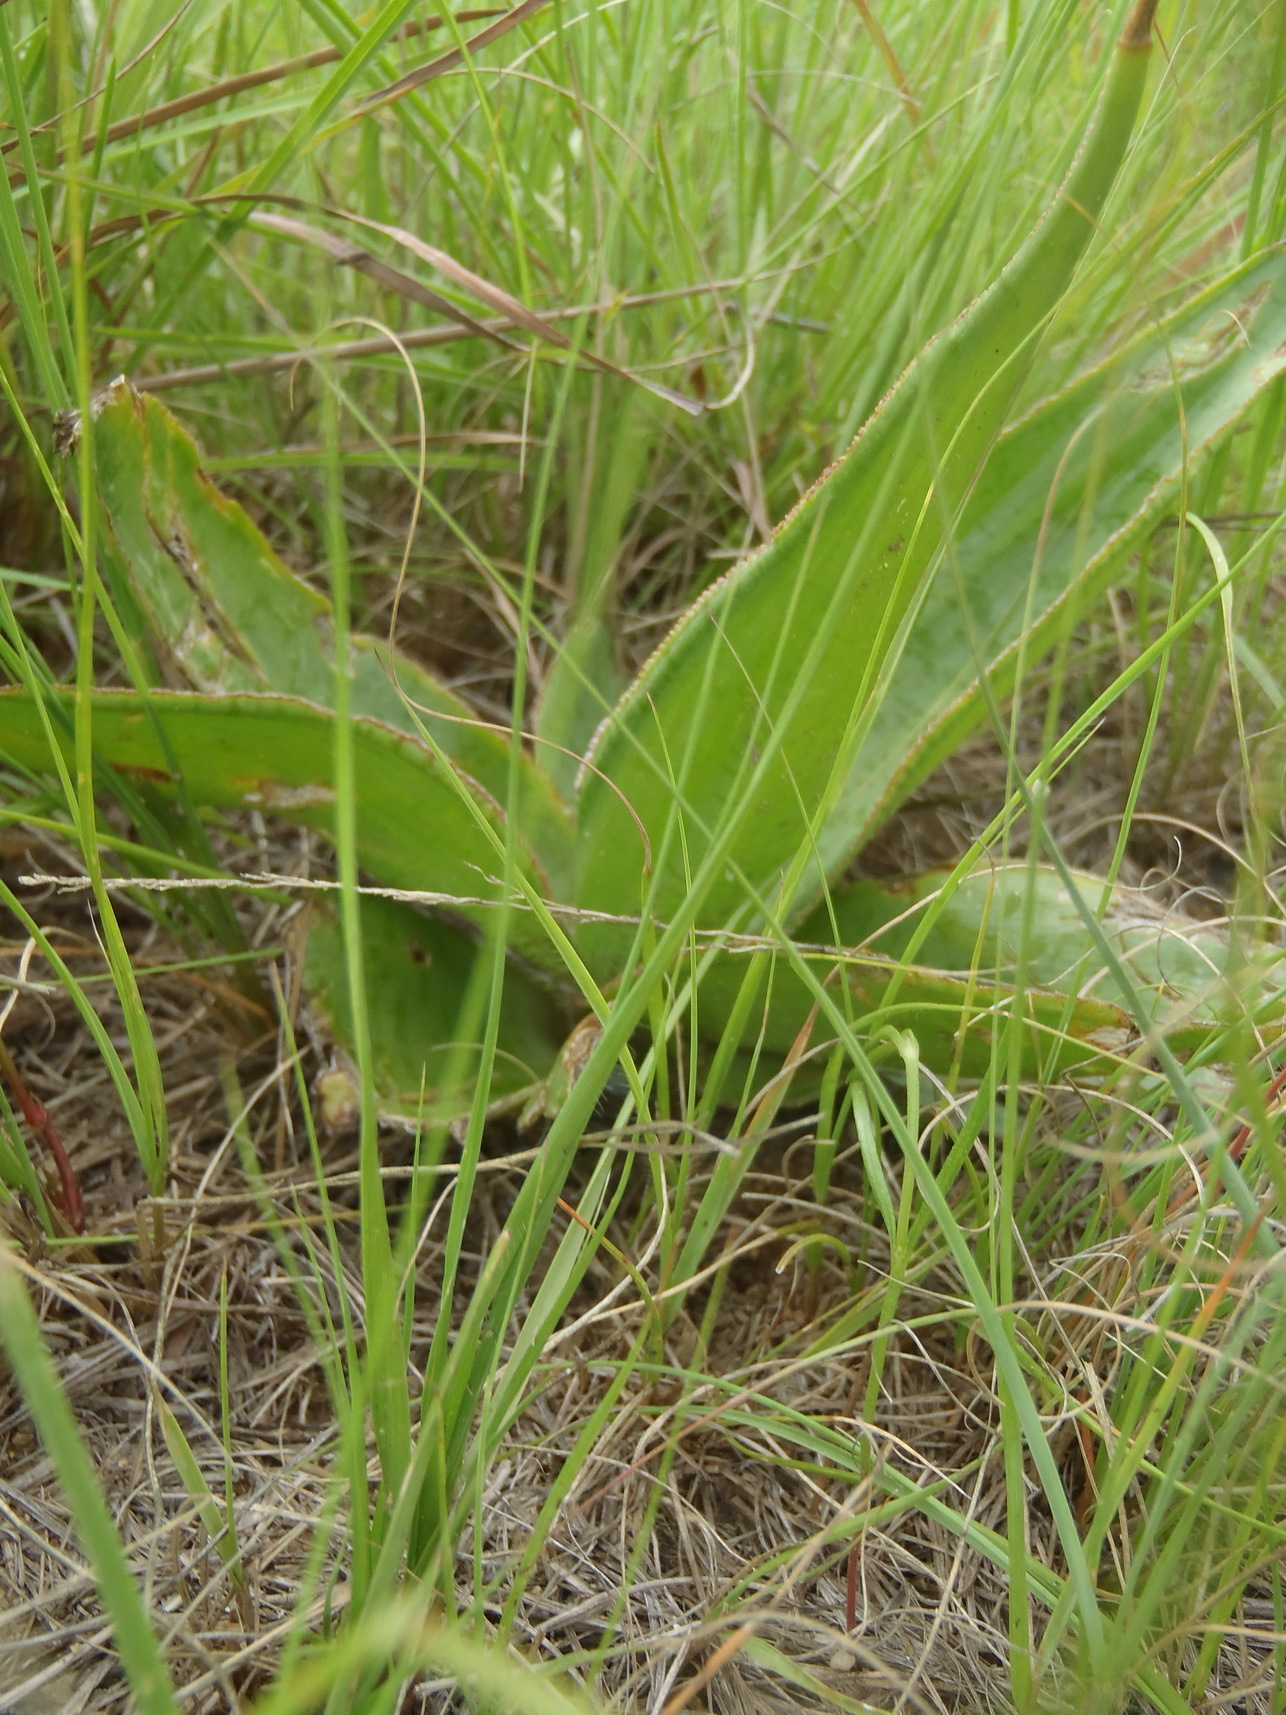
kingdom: Plantae
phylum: Tracheophyta
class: Liliopsida
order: Asparagales
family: Asparagaceae
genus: Ledebouria
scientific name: Ledebouria luteola
